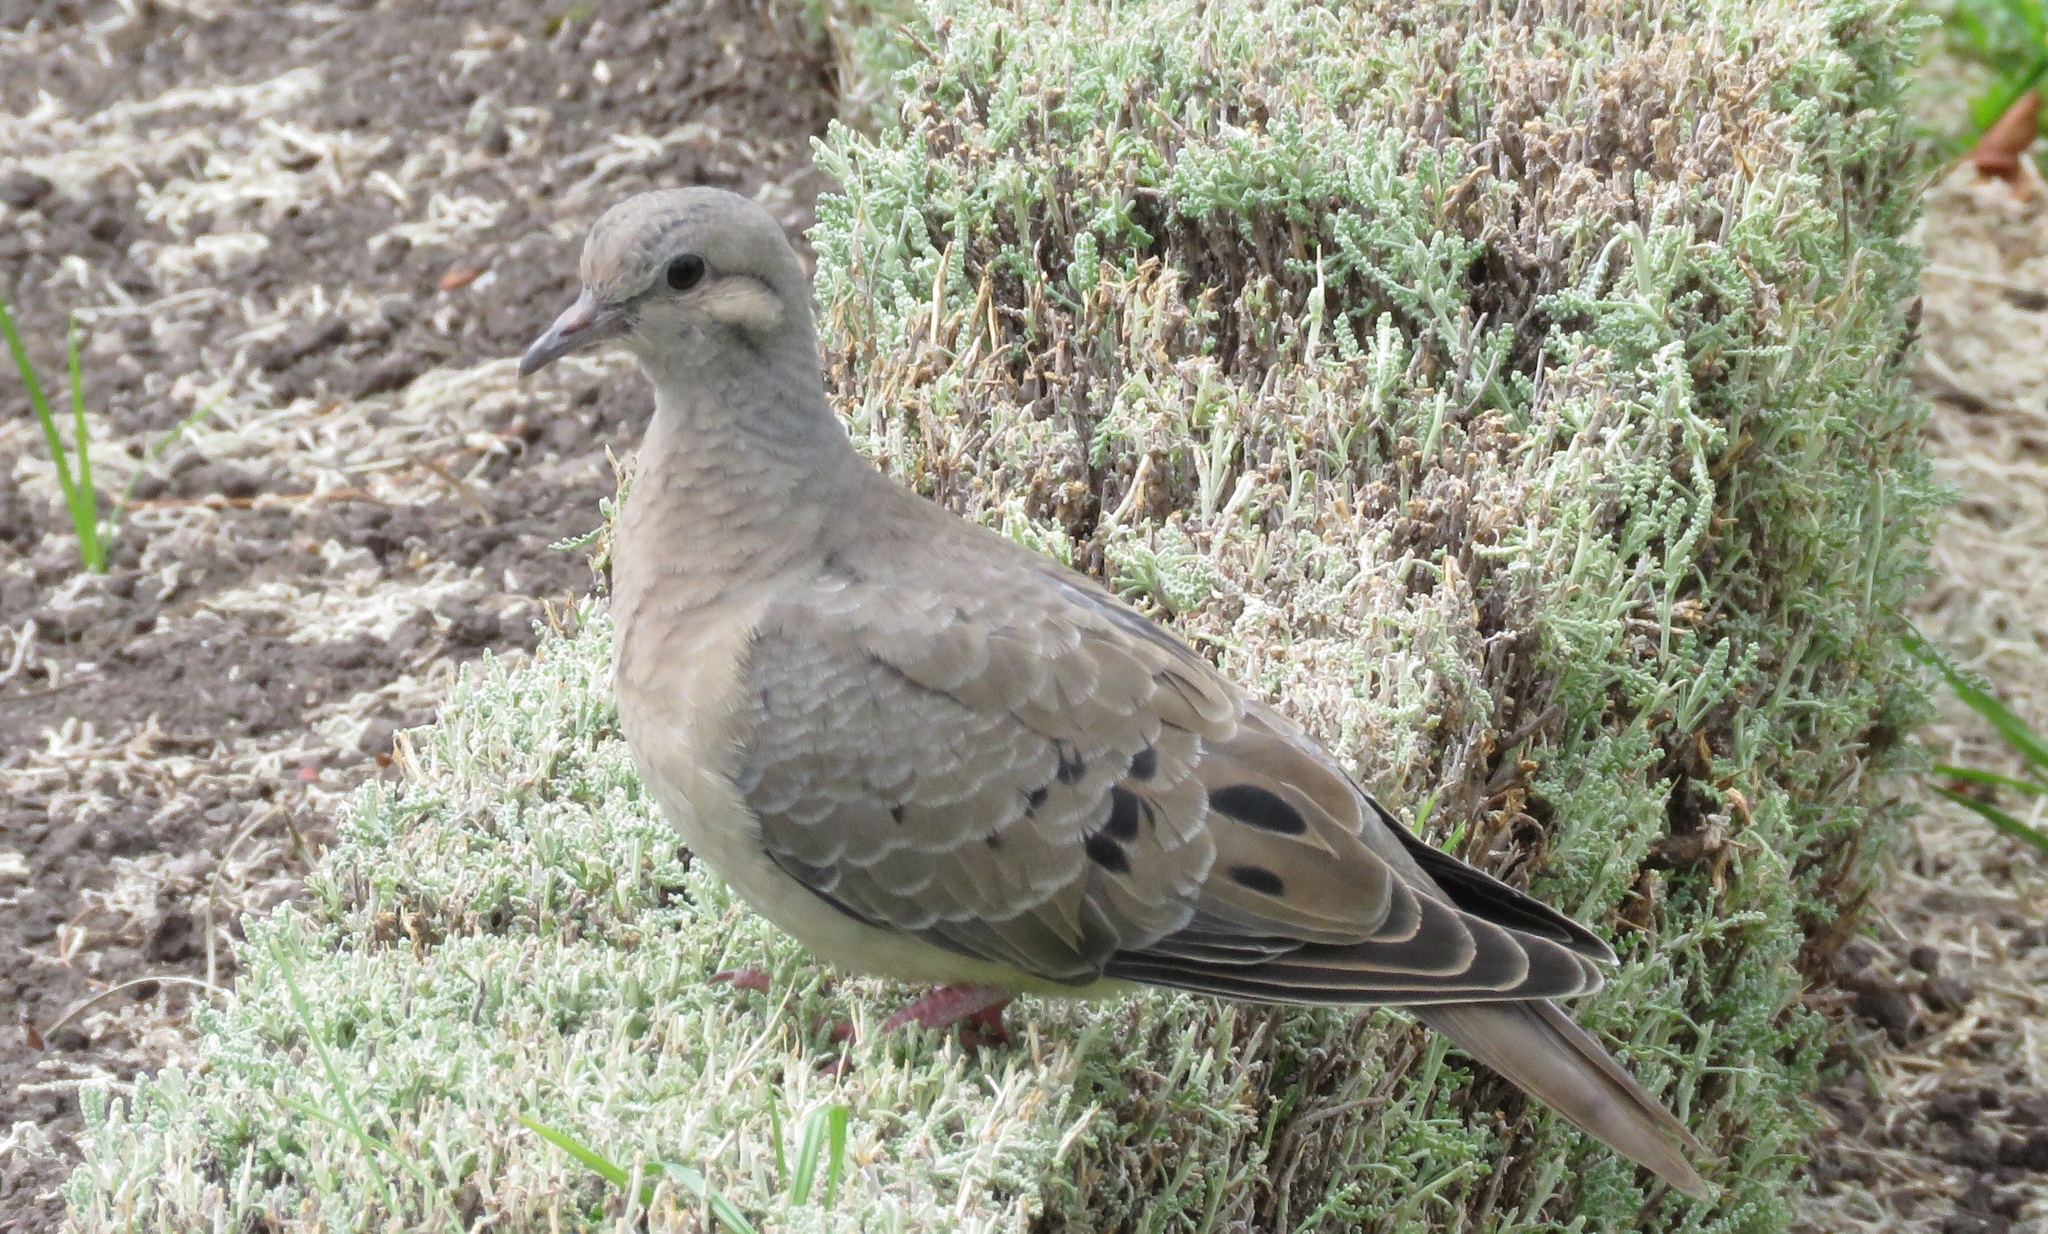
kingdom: Animalia
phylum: Chordata
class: Aves
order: Columbiformes
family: Columbidae
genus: Zenaida
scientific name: Zenaida auriculata
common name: Eared dove
